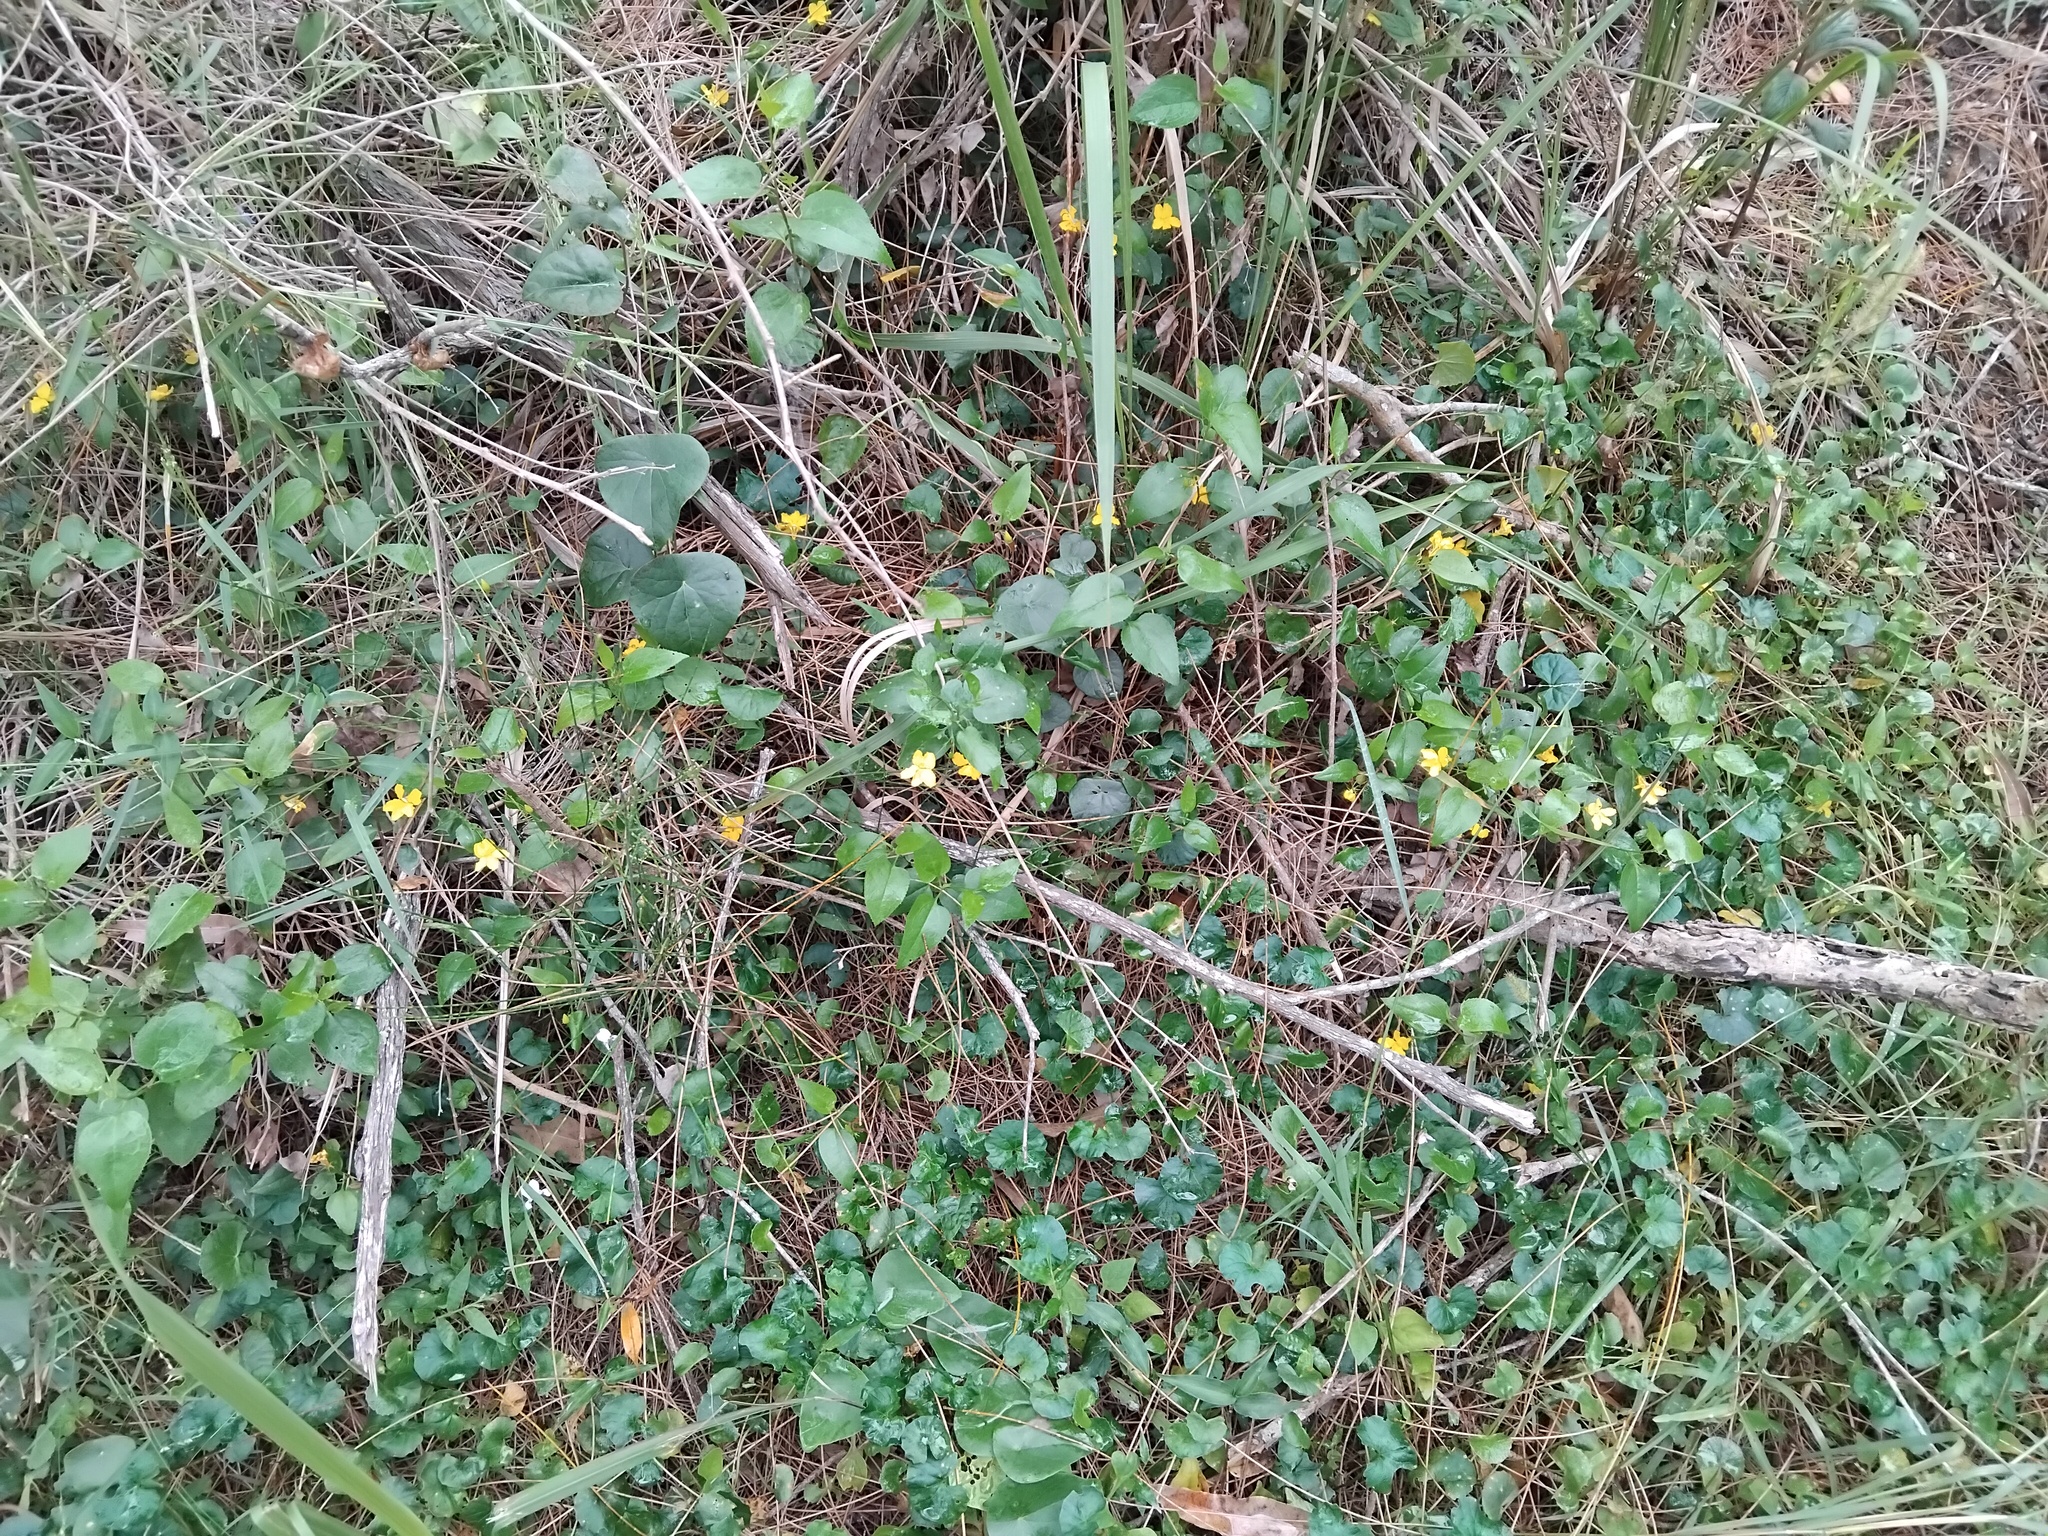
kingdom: Plantae
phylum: Tracheophyta
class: Magnoliopsida
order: Asterales
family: Goodeniaceae
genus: Goodenia
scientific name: Goodenia ovata
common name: Hop goodenia
